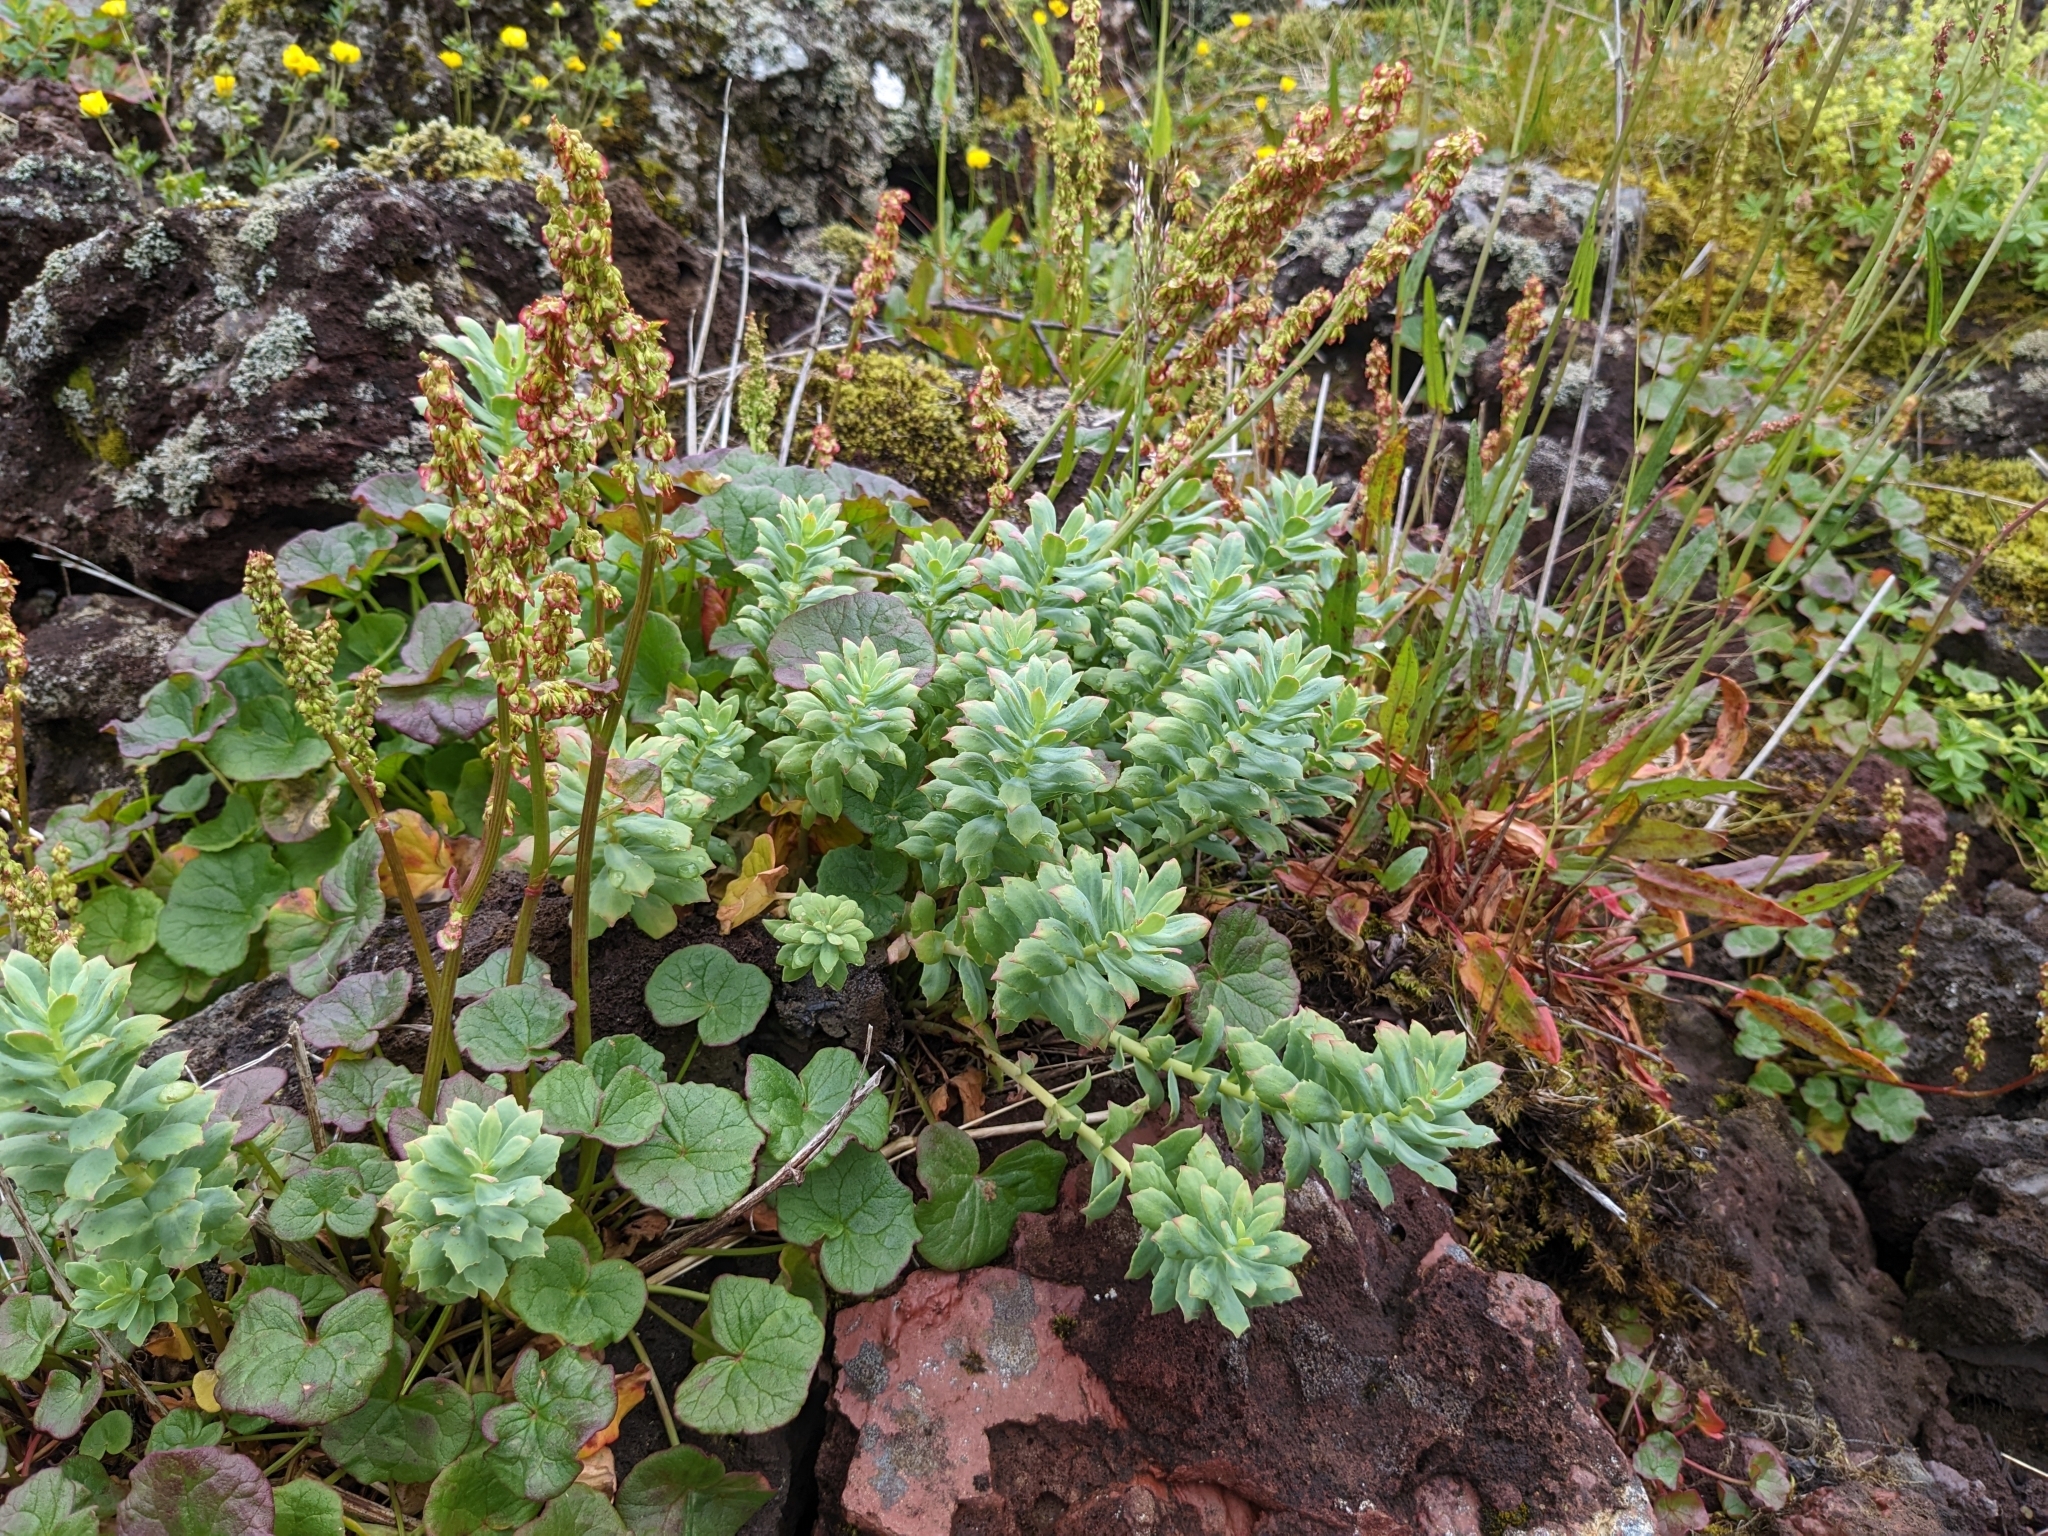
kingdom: Plantae
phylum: Tracheophyta
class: Magnoliopsida
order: Saxifragales
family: Crassulaceae
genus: Rhodiola
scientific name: Rhodiola rosea
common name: Roseroot
